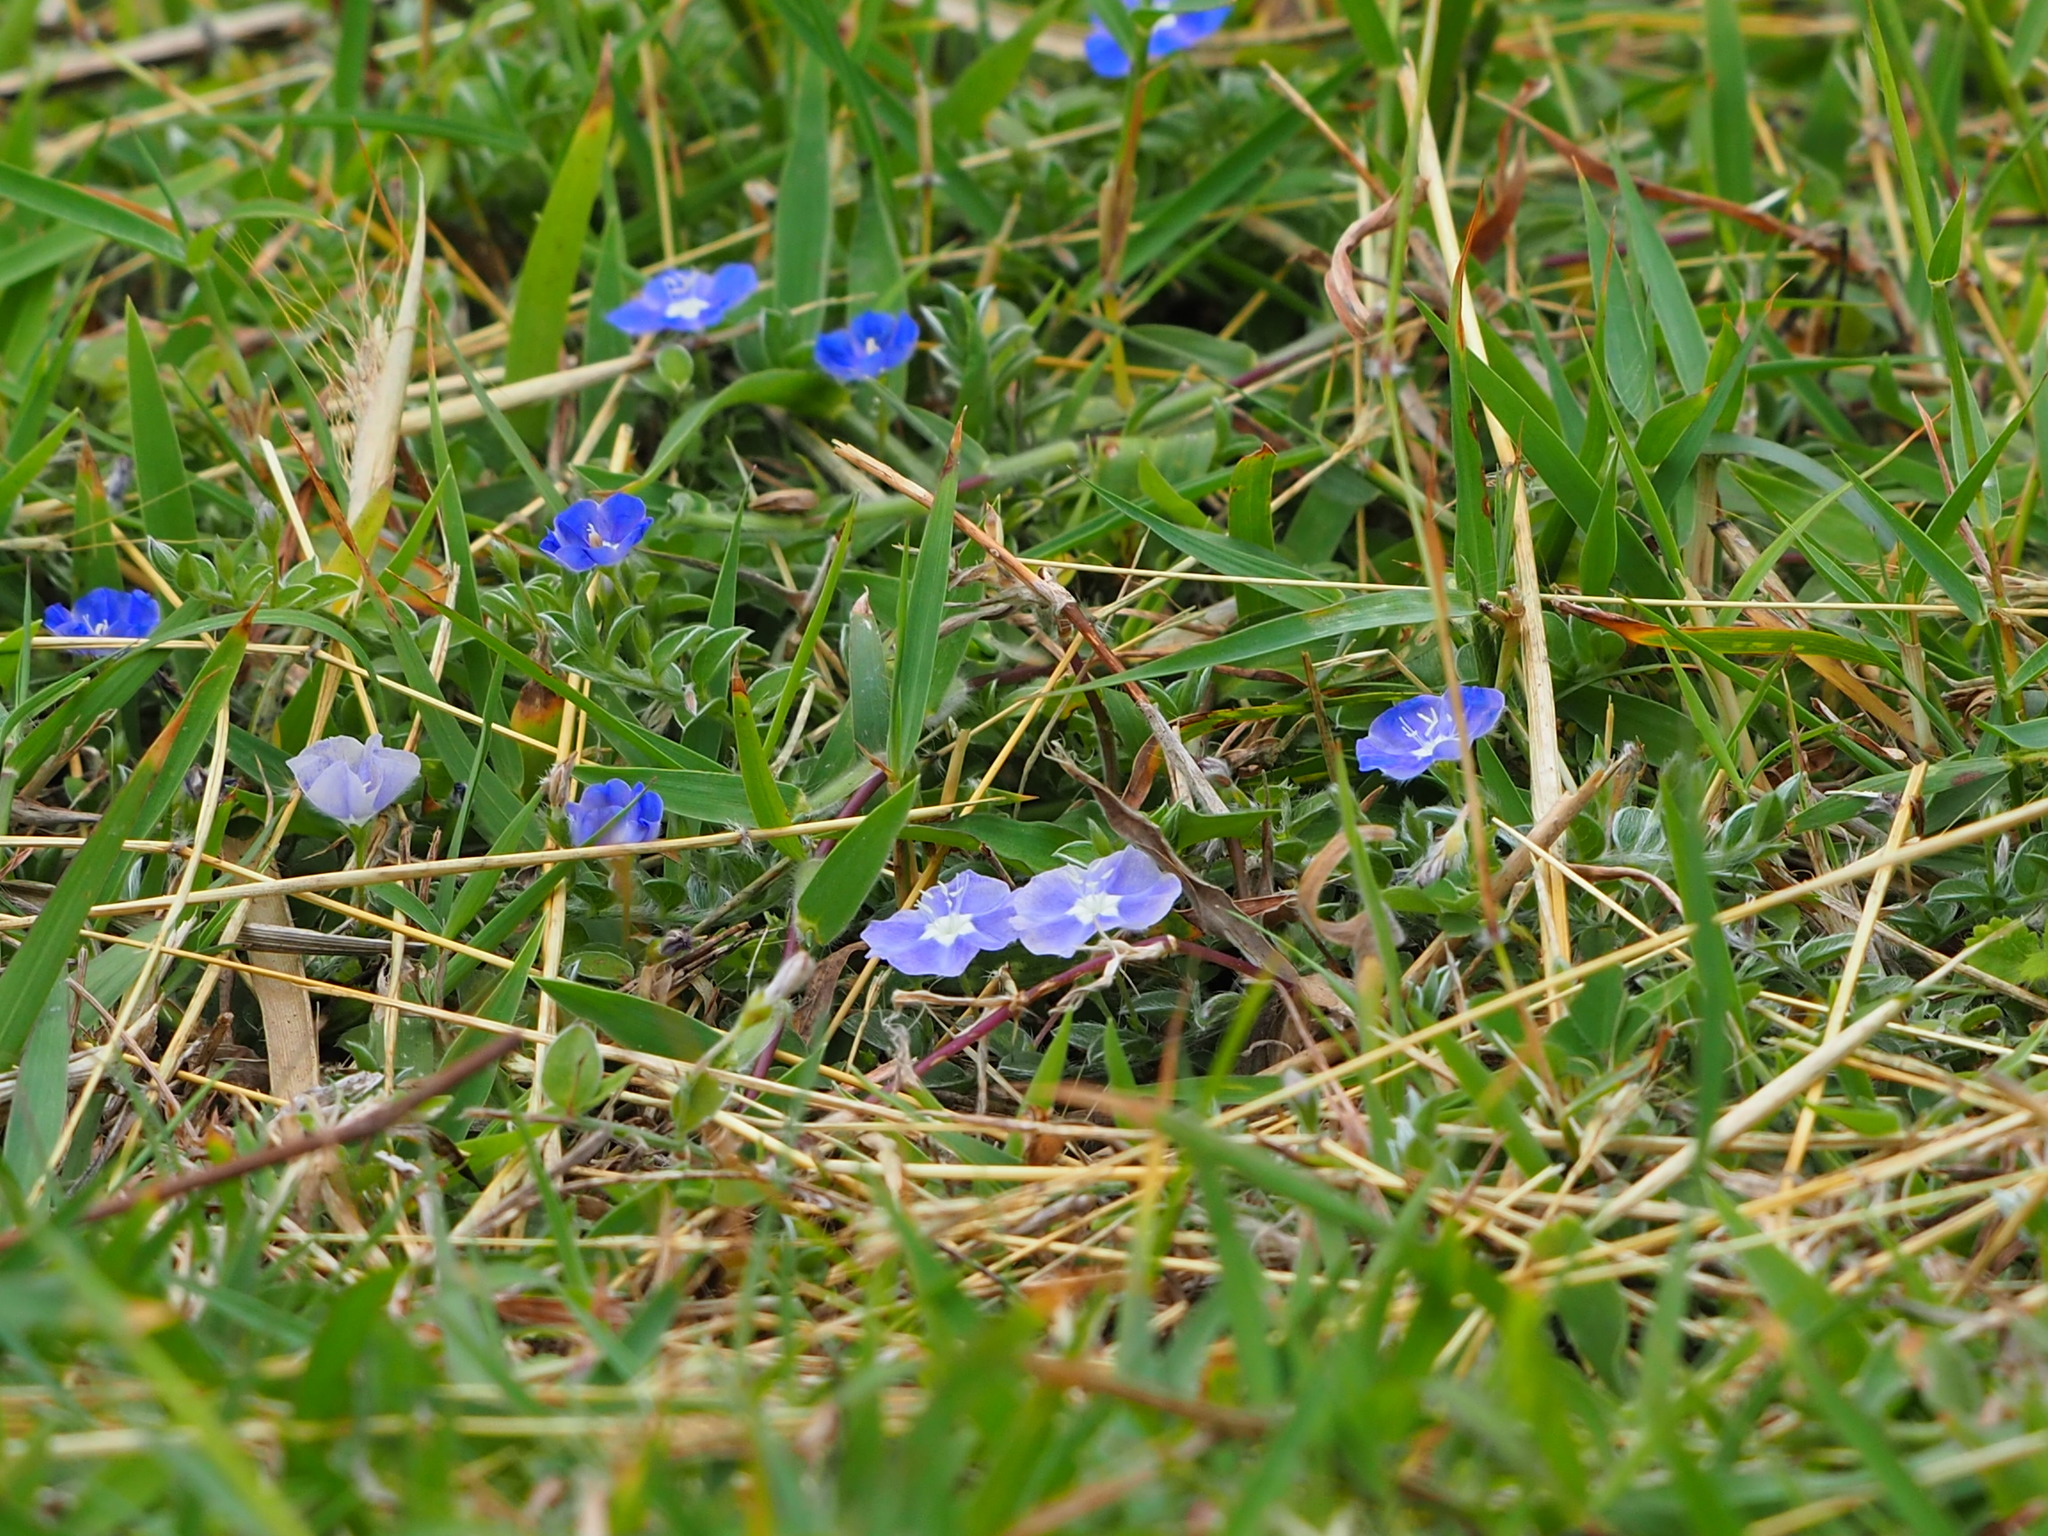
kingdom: Plantae
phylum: Tracheophyta
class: Magnoliopsida
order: Solanales
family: Convolvulaceae
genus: Evolvulus
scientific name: Evolvulus alsinoides
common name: Slender dwarf morning-glory
